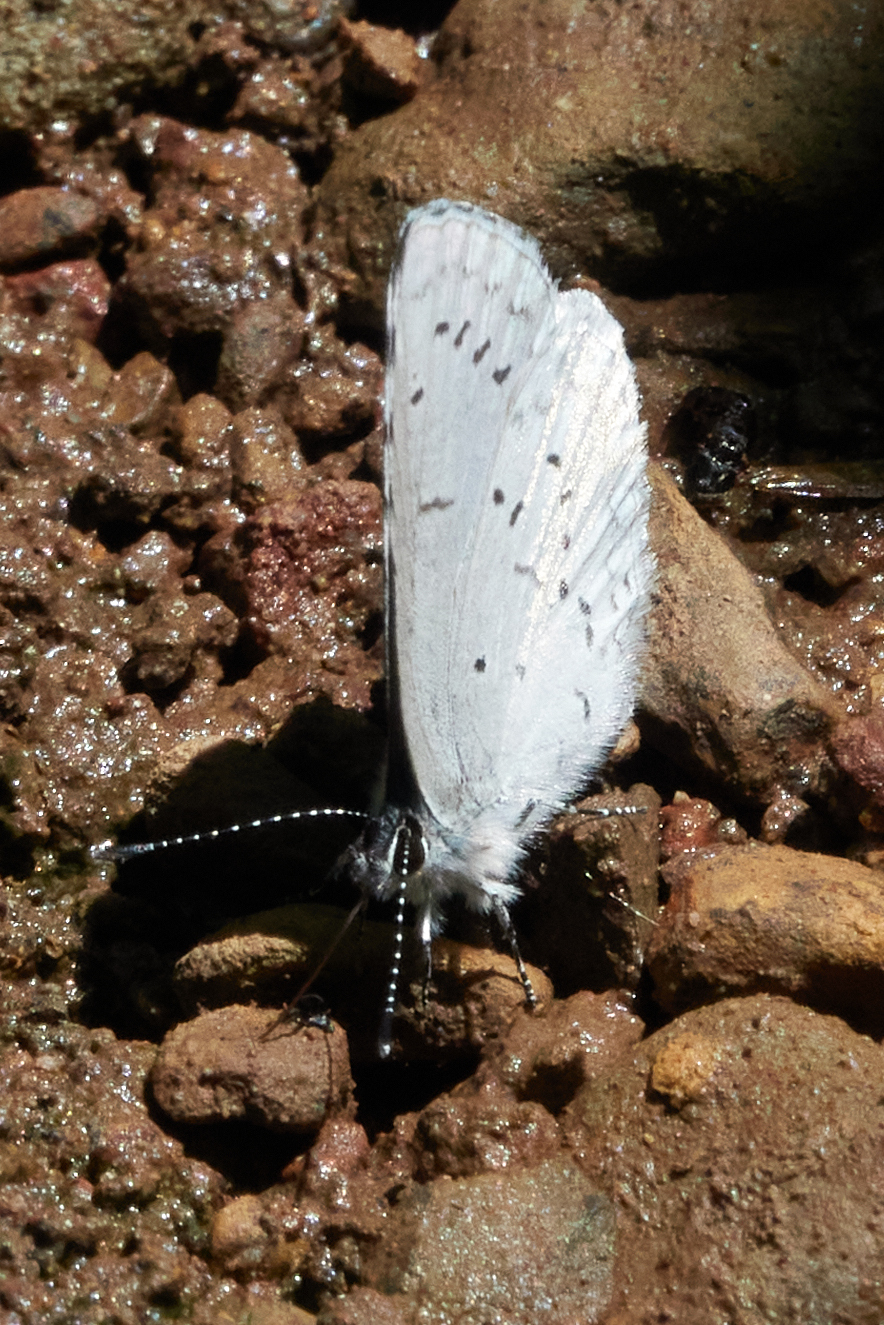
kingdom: Animalia
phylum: Arthropoda
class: Insecta
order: Lepidoptera
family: Lycaenidae
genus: Celastrina
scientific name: Celastrina ladon
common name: Spring azure
